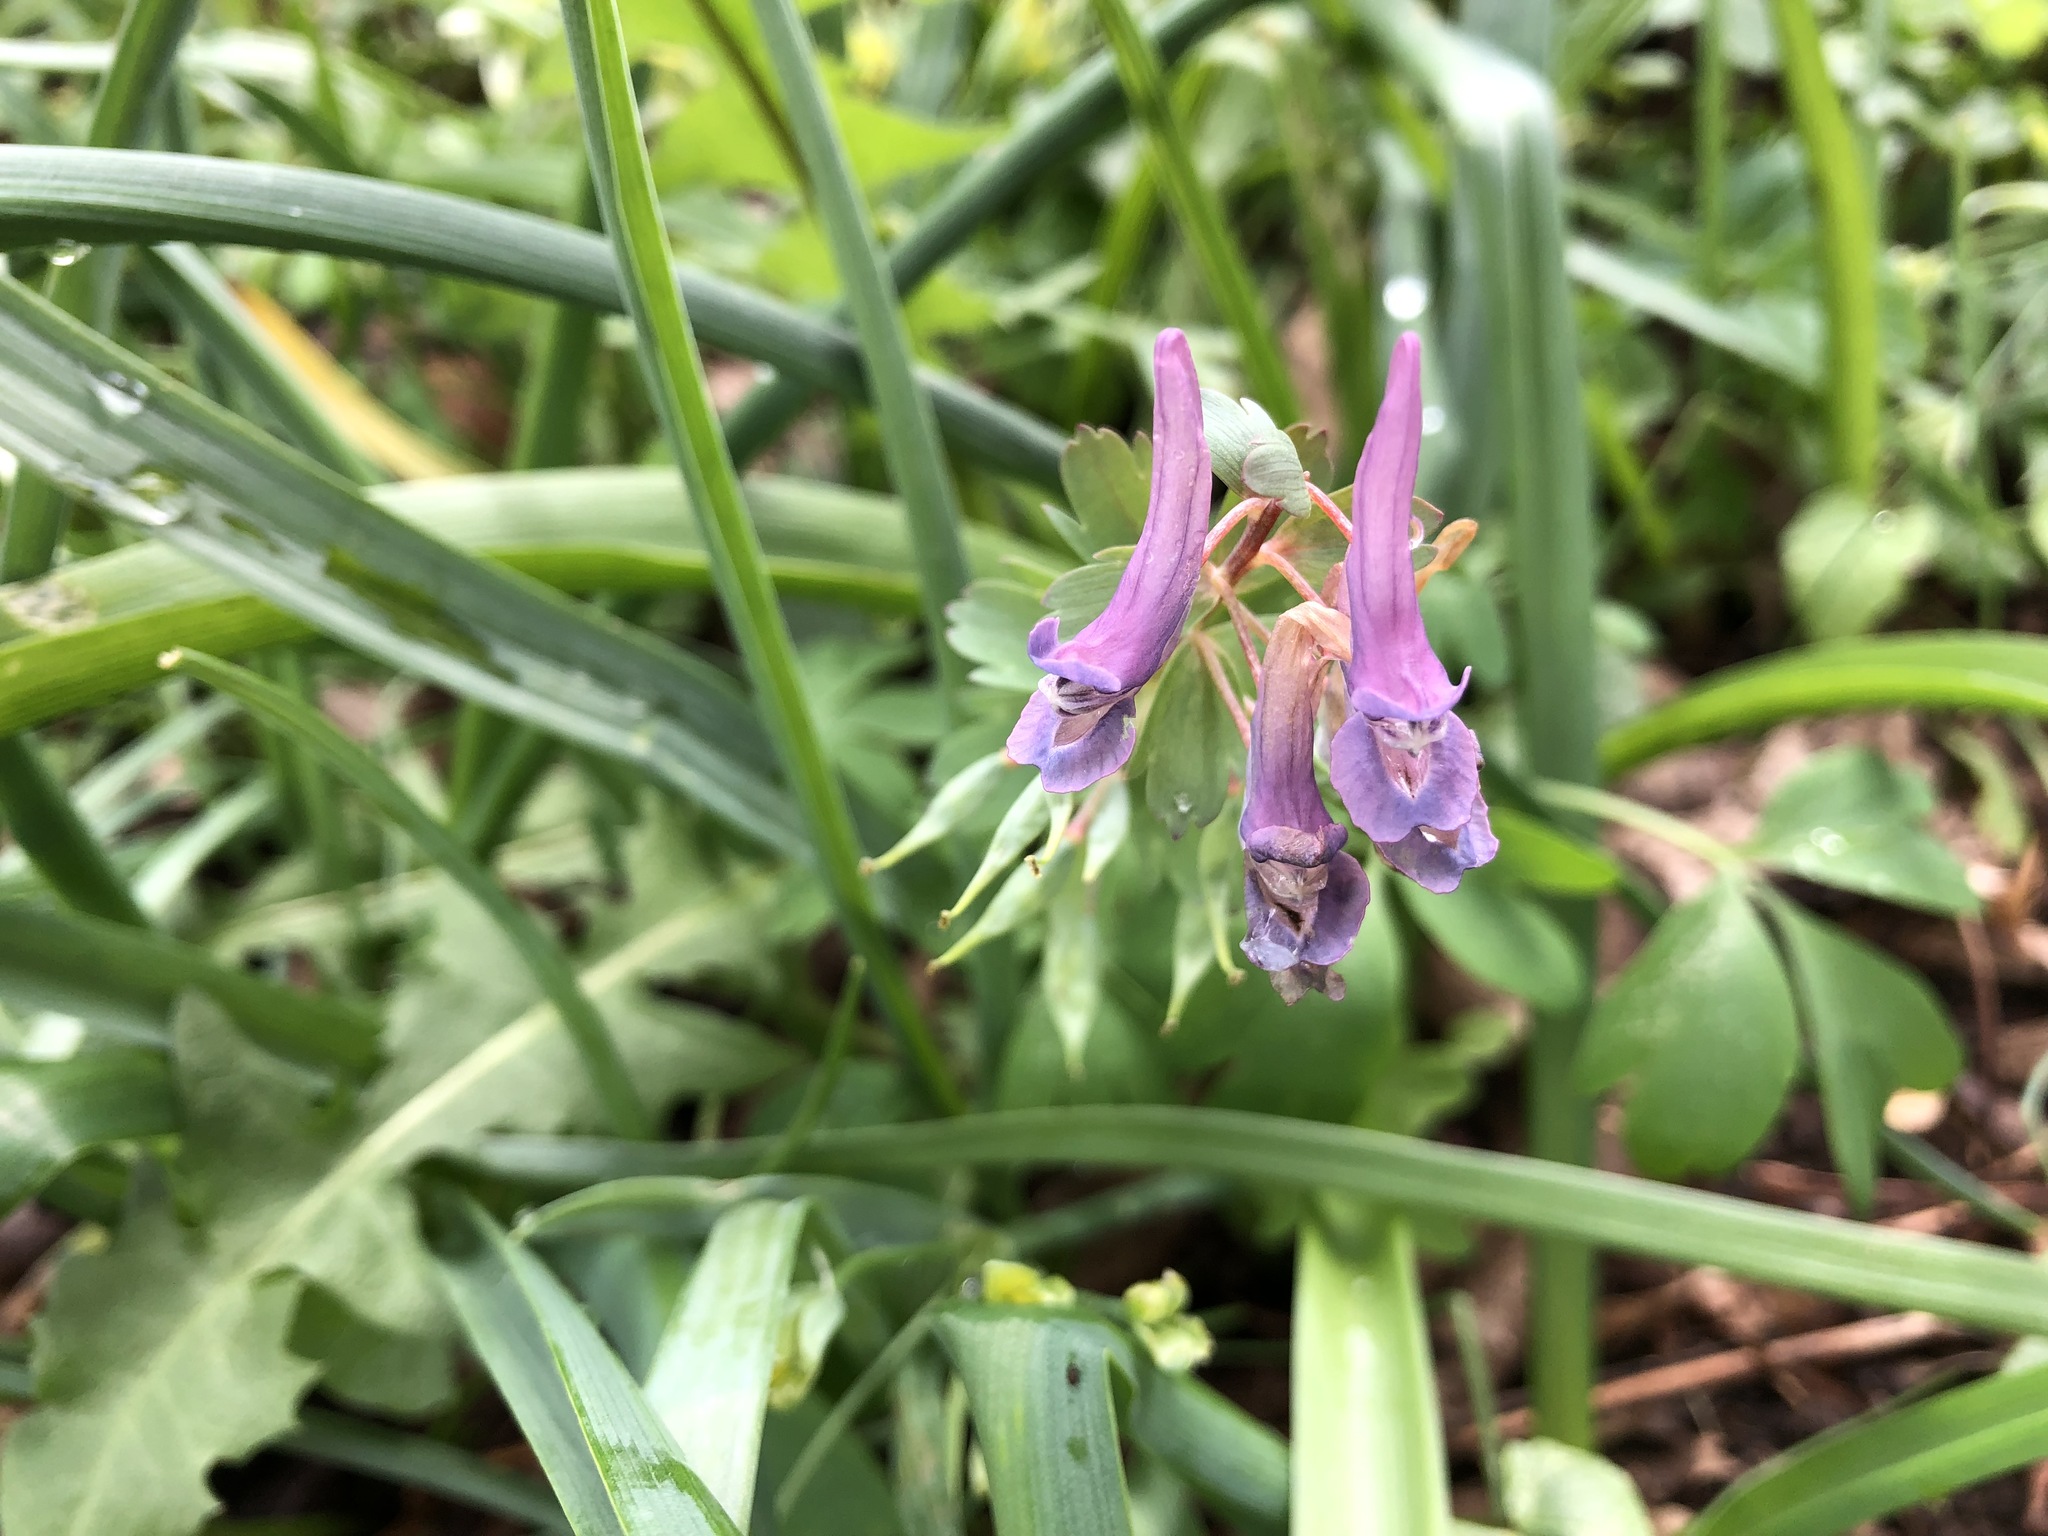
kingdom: Plantae
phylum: Tracheophyta
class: Magnoliopsida
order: Ranunculales
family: Papaveraceae
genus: Corydalis
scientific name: Corydalis solida
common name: Bird-in-a-bush
